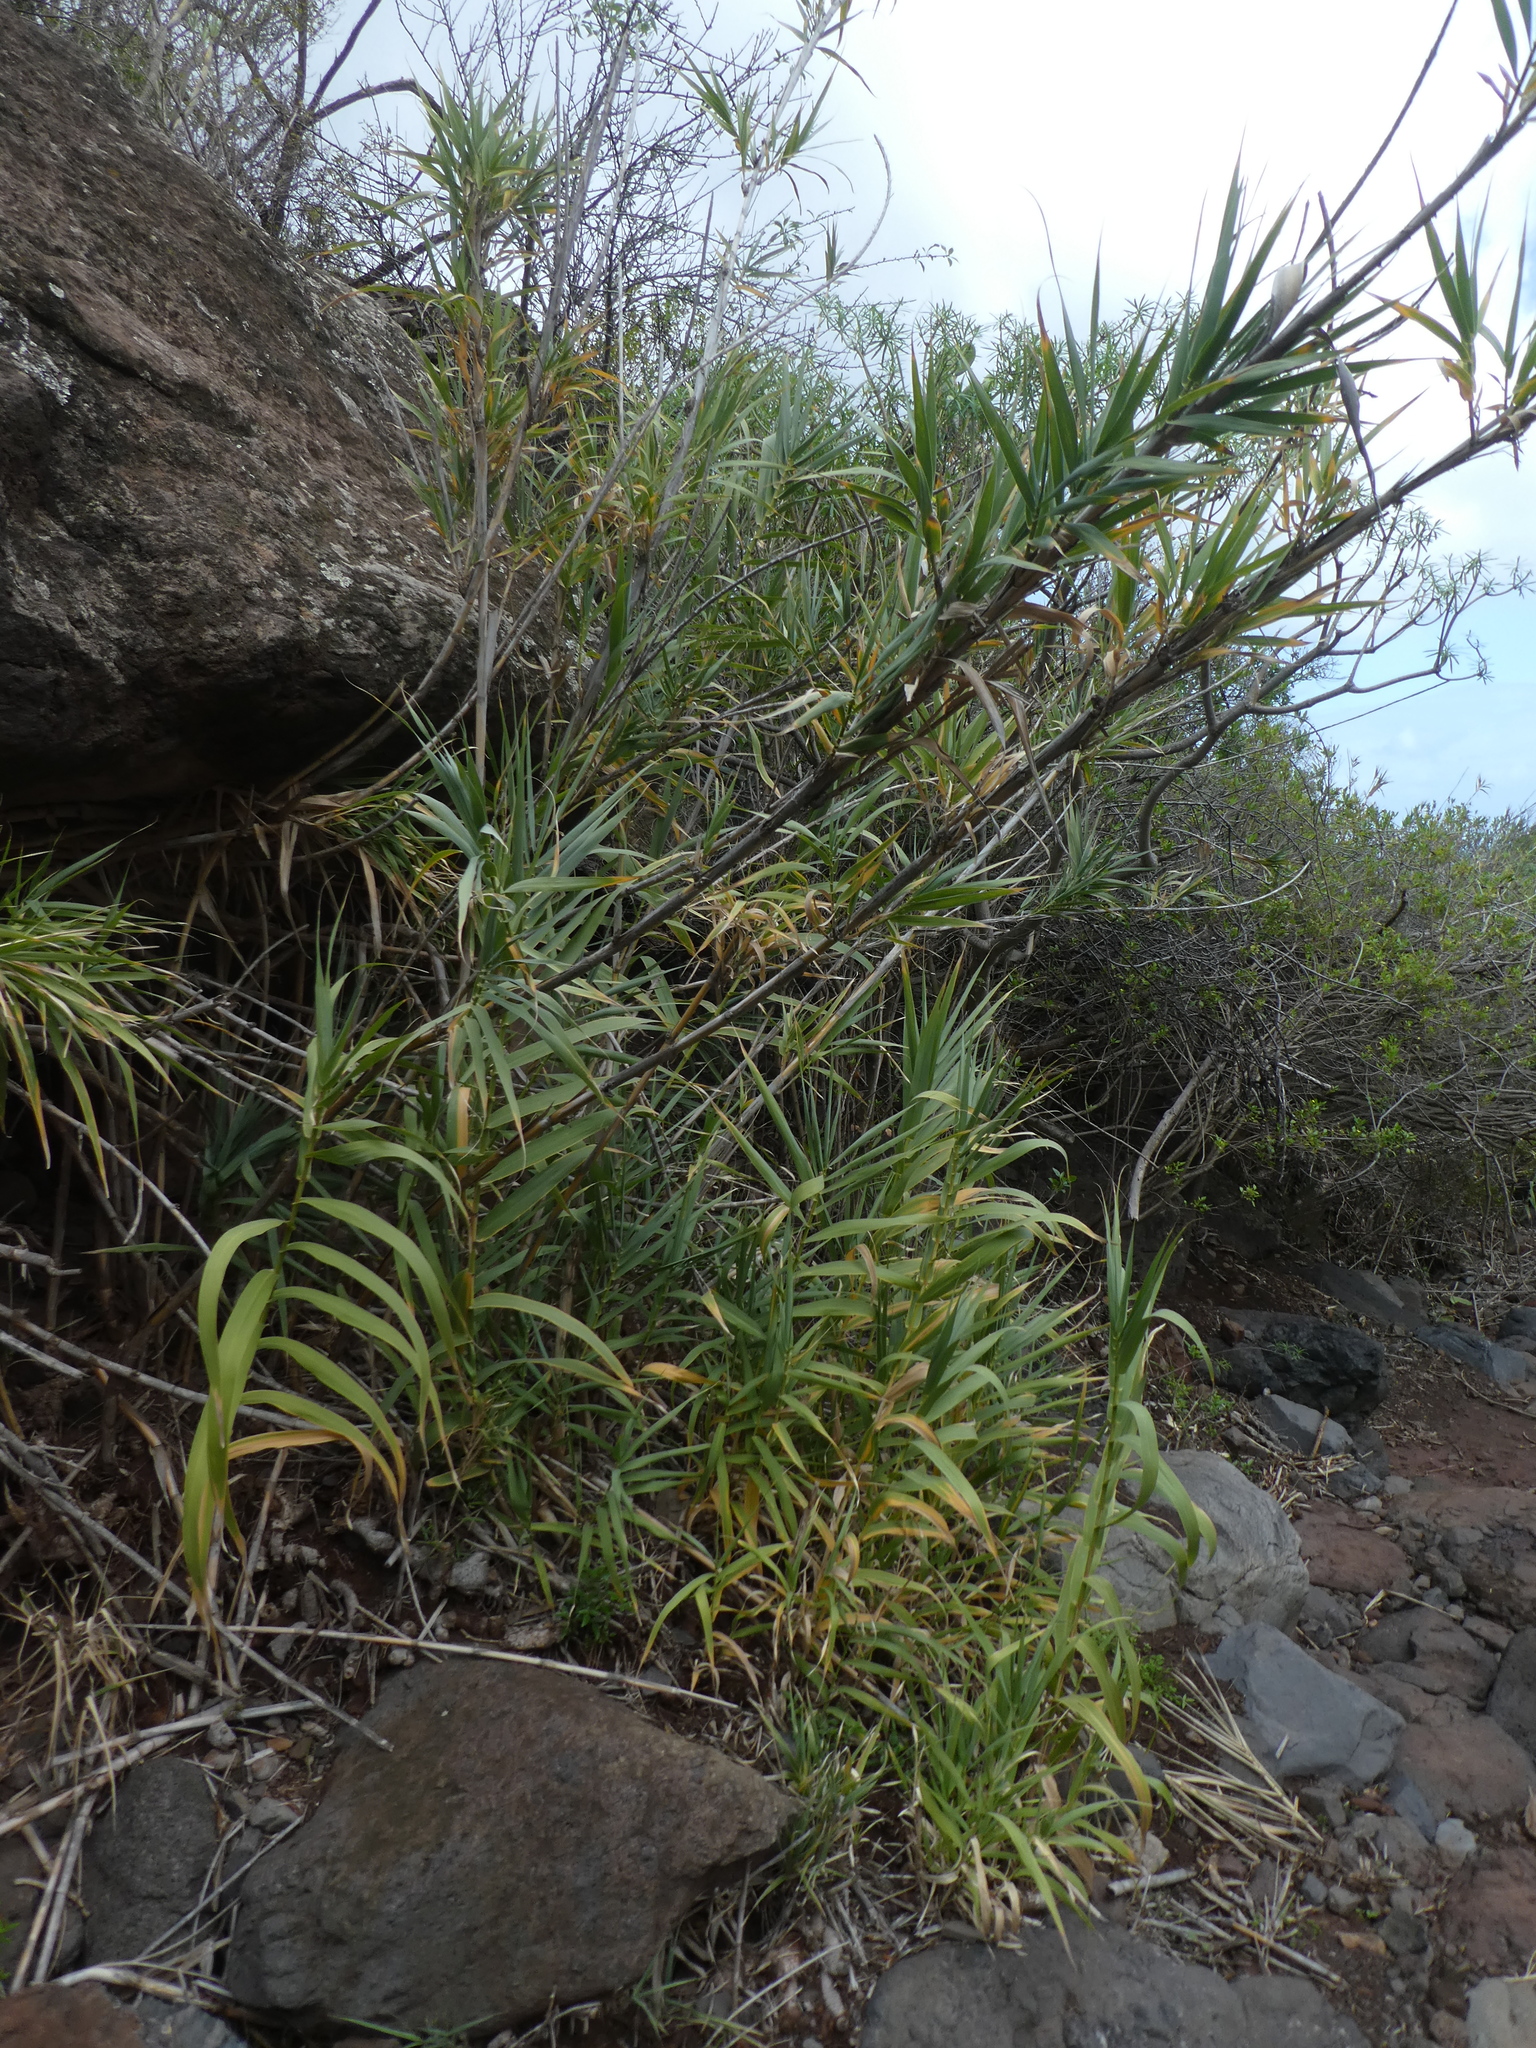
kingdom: Plantae
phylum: Tracheophyta
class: Liliopsida
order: Poales
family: Poaceae
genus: Arundo
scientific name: Arundo donax
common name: Giant reed
